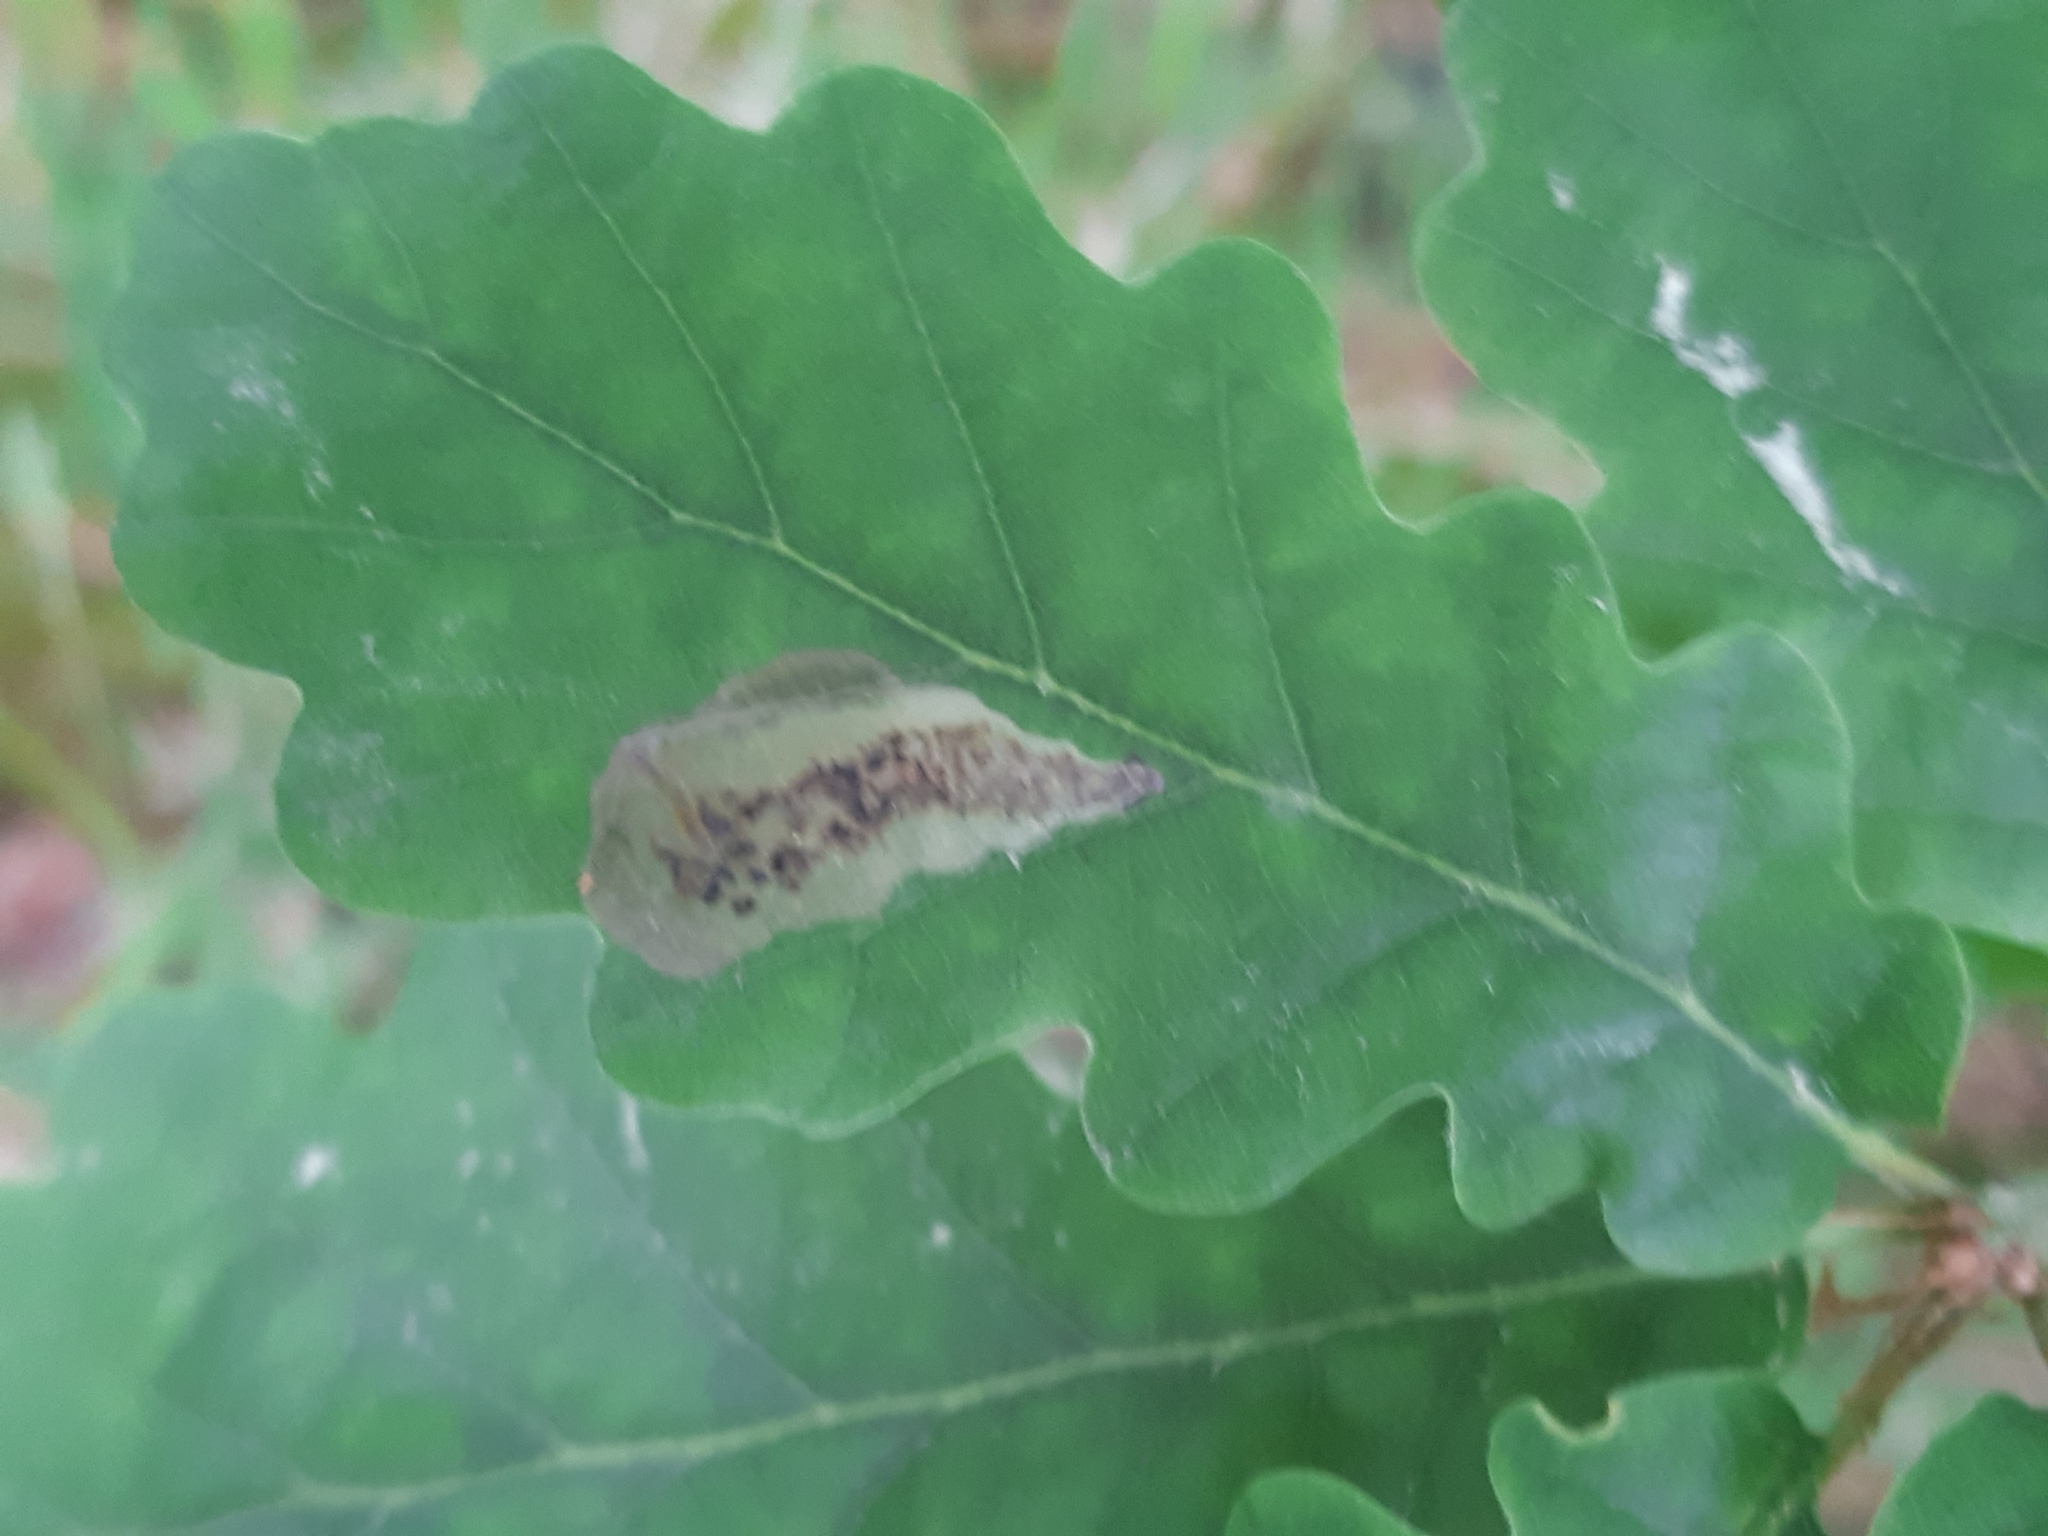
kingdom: Animalia
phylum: Arthropoda
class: Insecta
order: Hymenoptera
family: Tenthredinidae
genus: Profenusa
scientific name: Profenusa pygmaea
